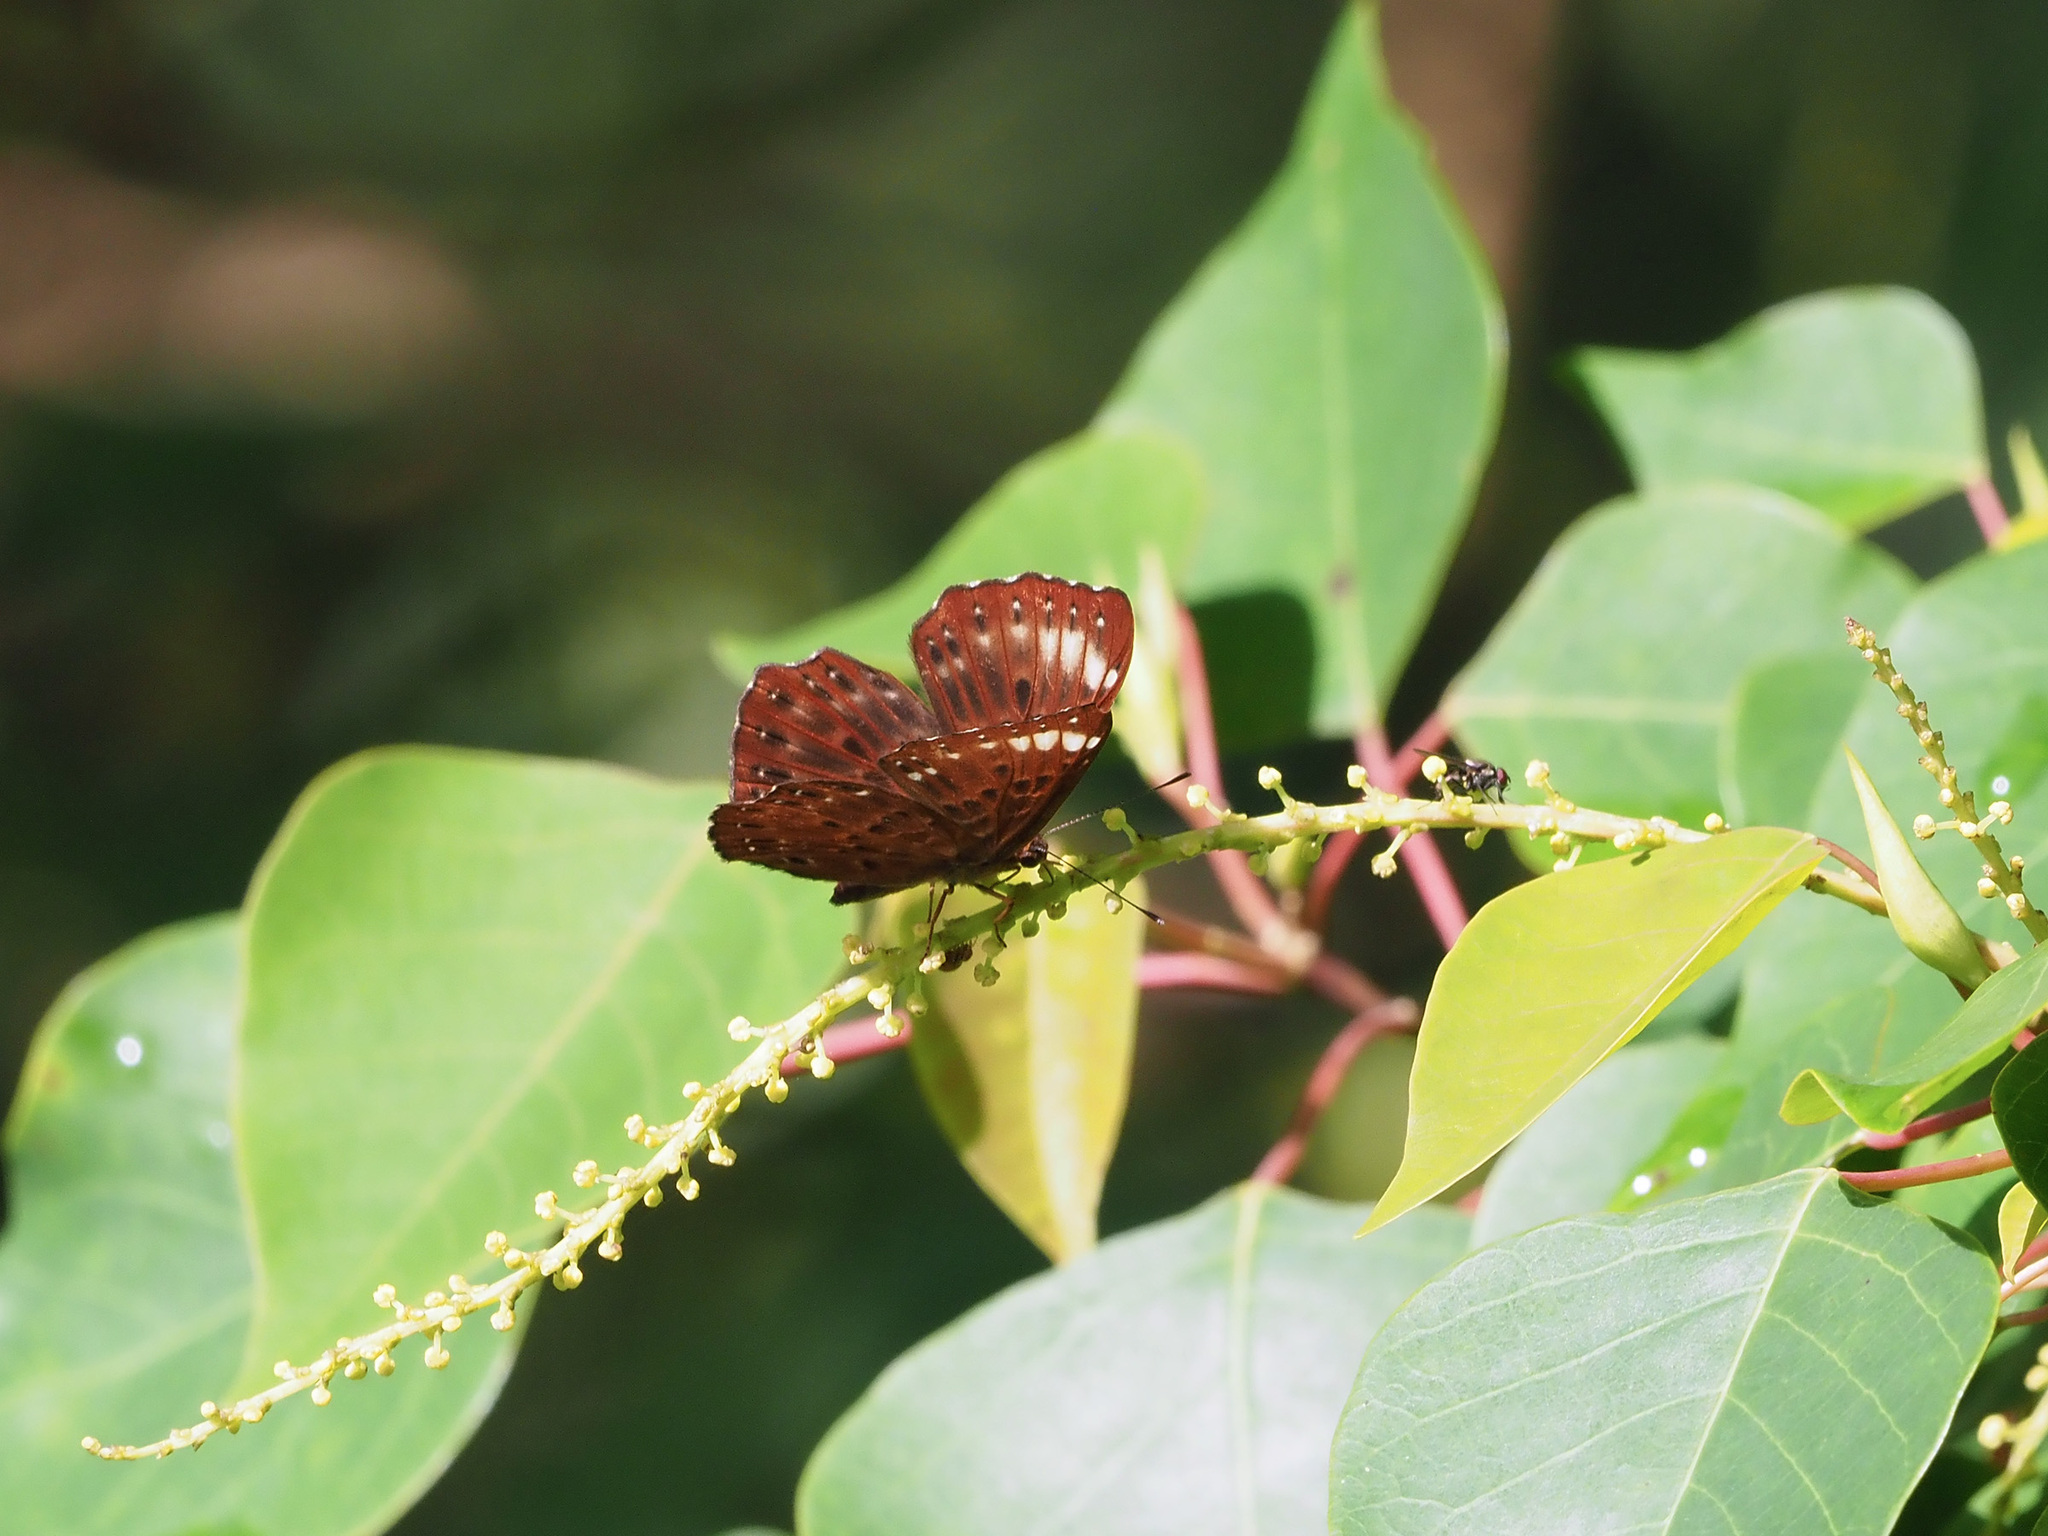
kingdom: Animalia
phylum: Arthropoda
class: Insecta
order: Lepidoptera
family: Riodinidae
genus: Zemeros
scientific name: Zemeros flegyas
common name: Punchinello
